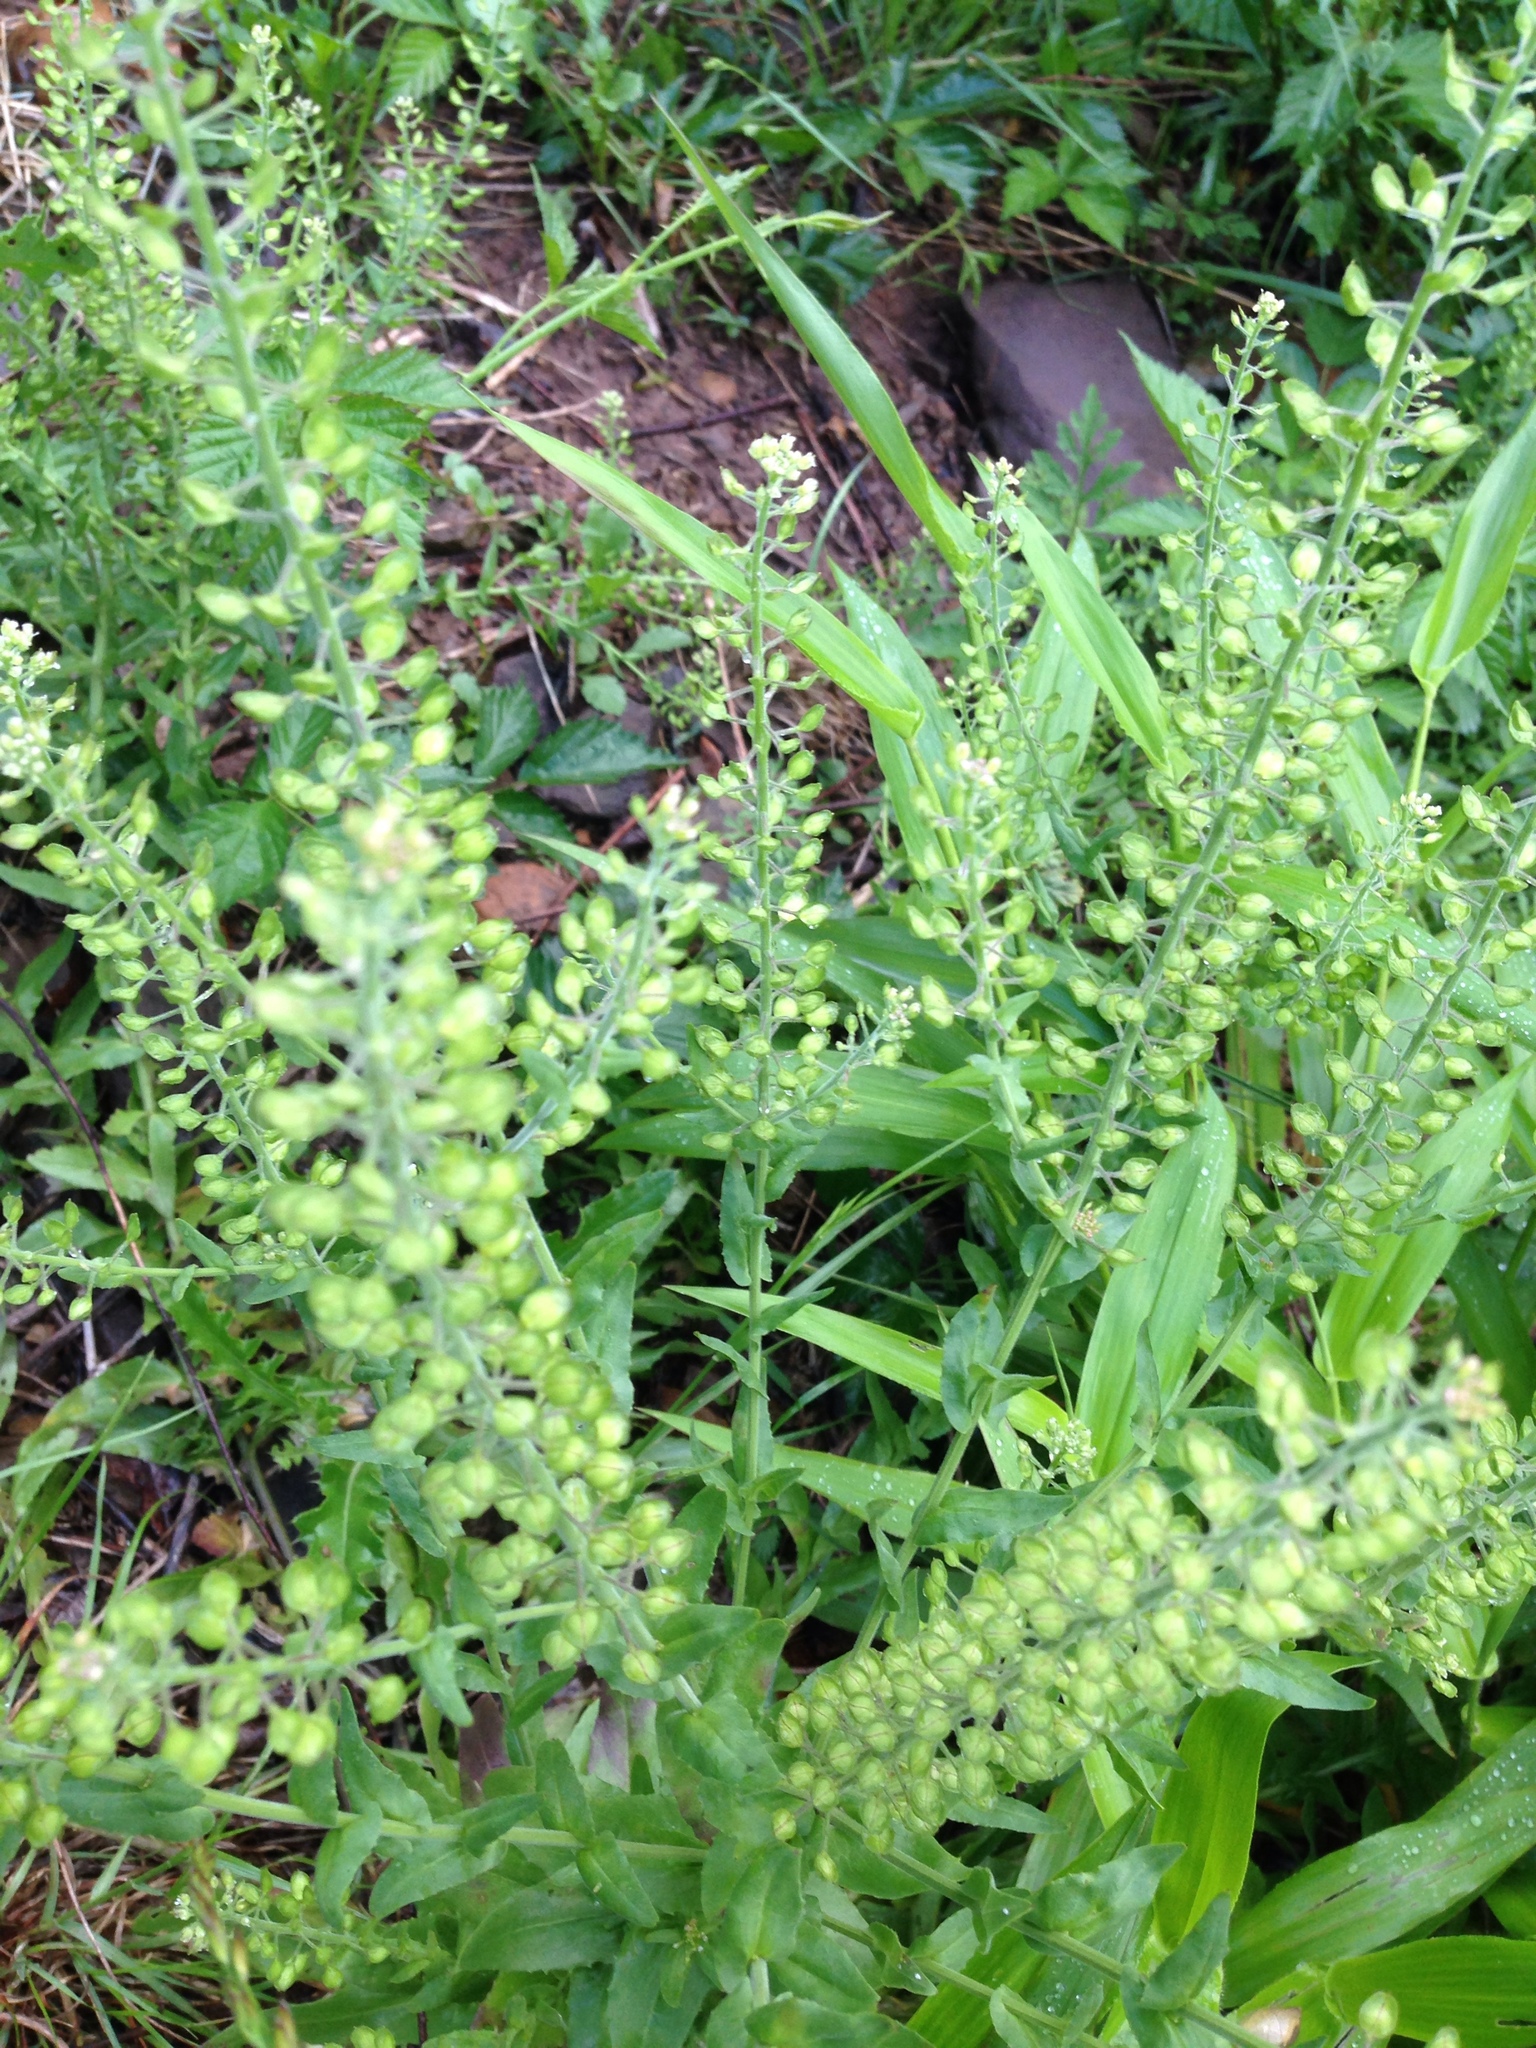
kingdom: Plantae
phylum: Tracheophyta
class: Magnoliopsida
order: Brassicales
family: Brassicaceae
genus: Lepidium
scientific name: Lepidium campestre
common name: Field pepperwort
